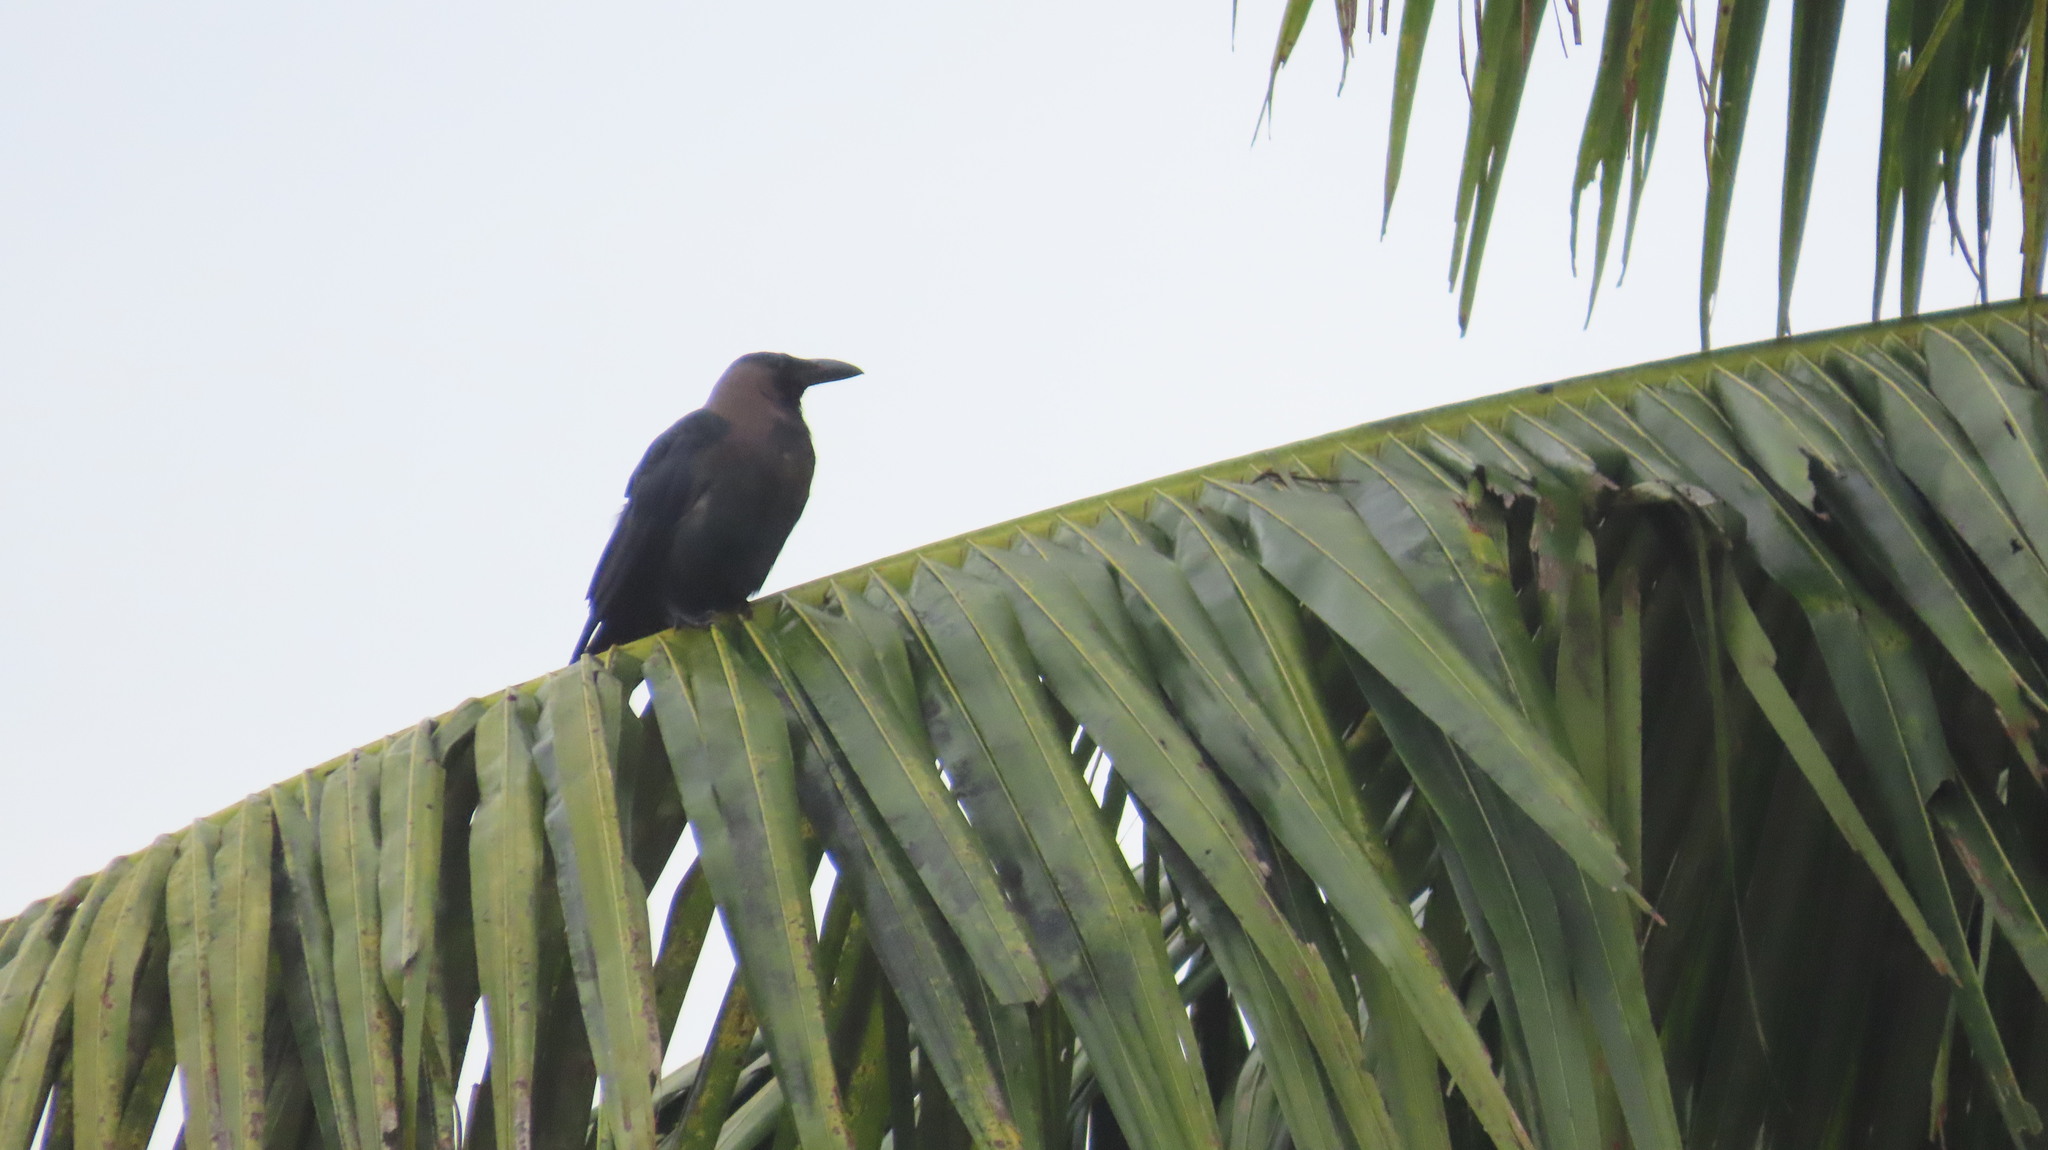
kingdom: Animalia
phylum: Chordata
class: Aves
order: Passeriformes
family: Corvidae
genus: Corvus
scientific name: Corvus splendens
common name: House crow
